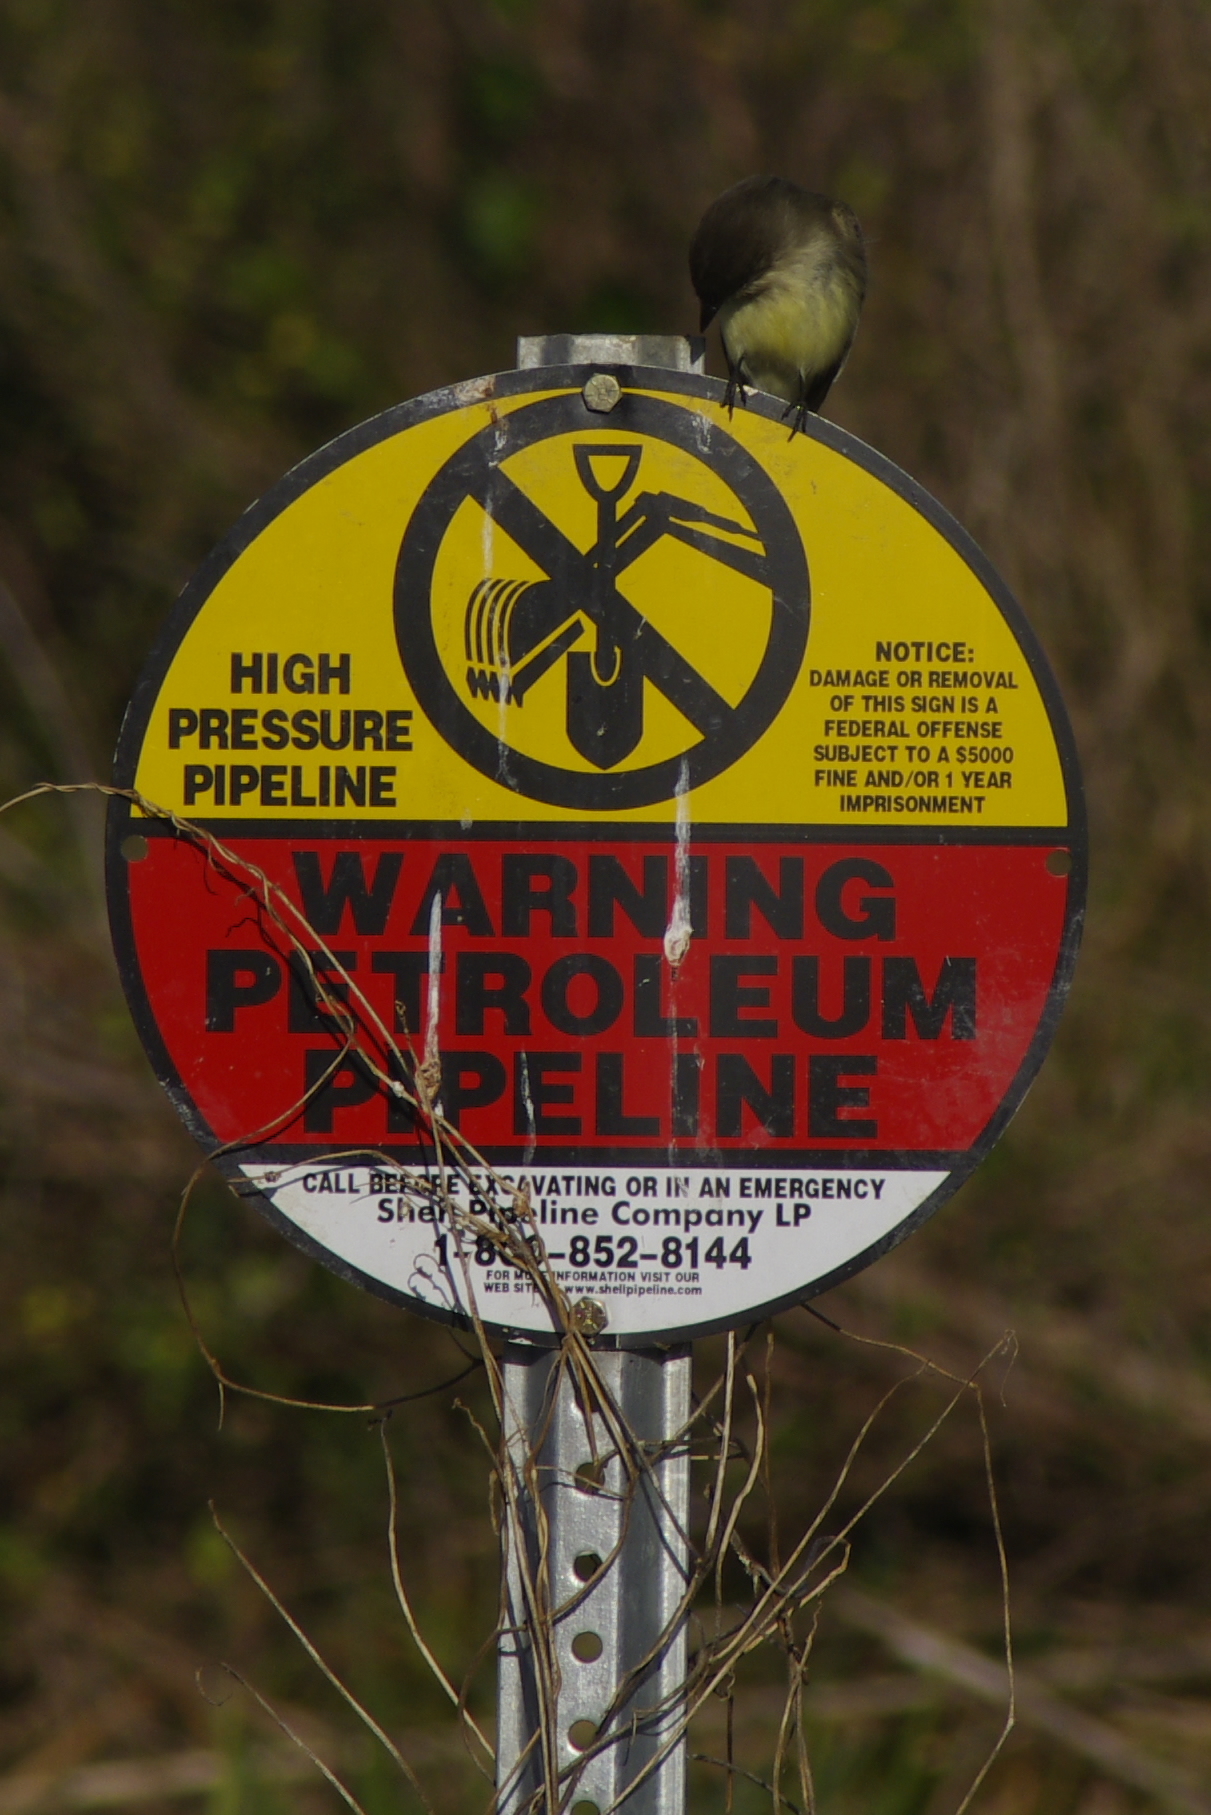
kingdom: Animalia
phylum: Chordata
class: Aves
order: Passeriformes
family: Tyrannidae
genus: Sayornis
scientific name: Sayornis phoebe
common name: Eastern phoebe
